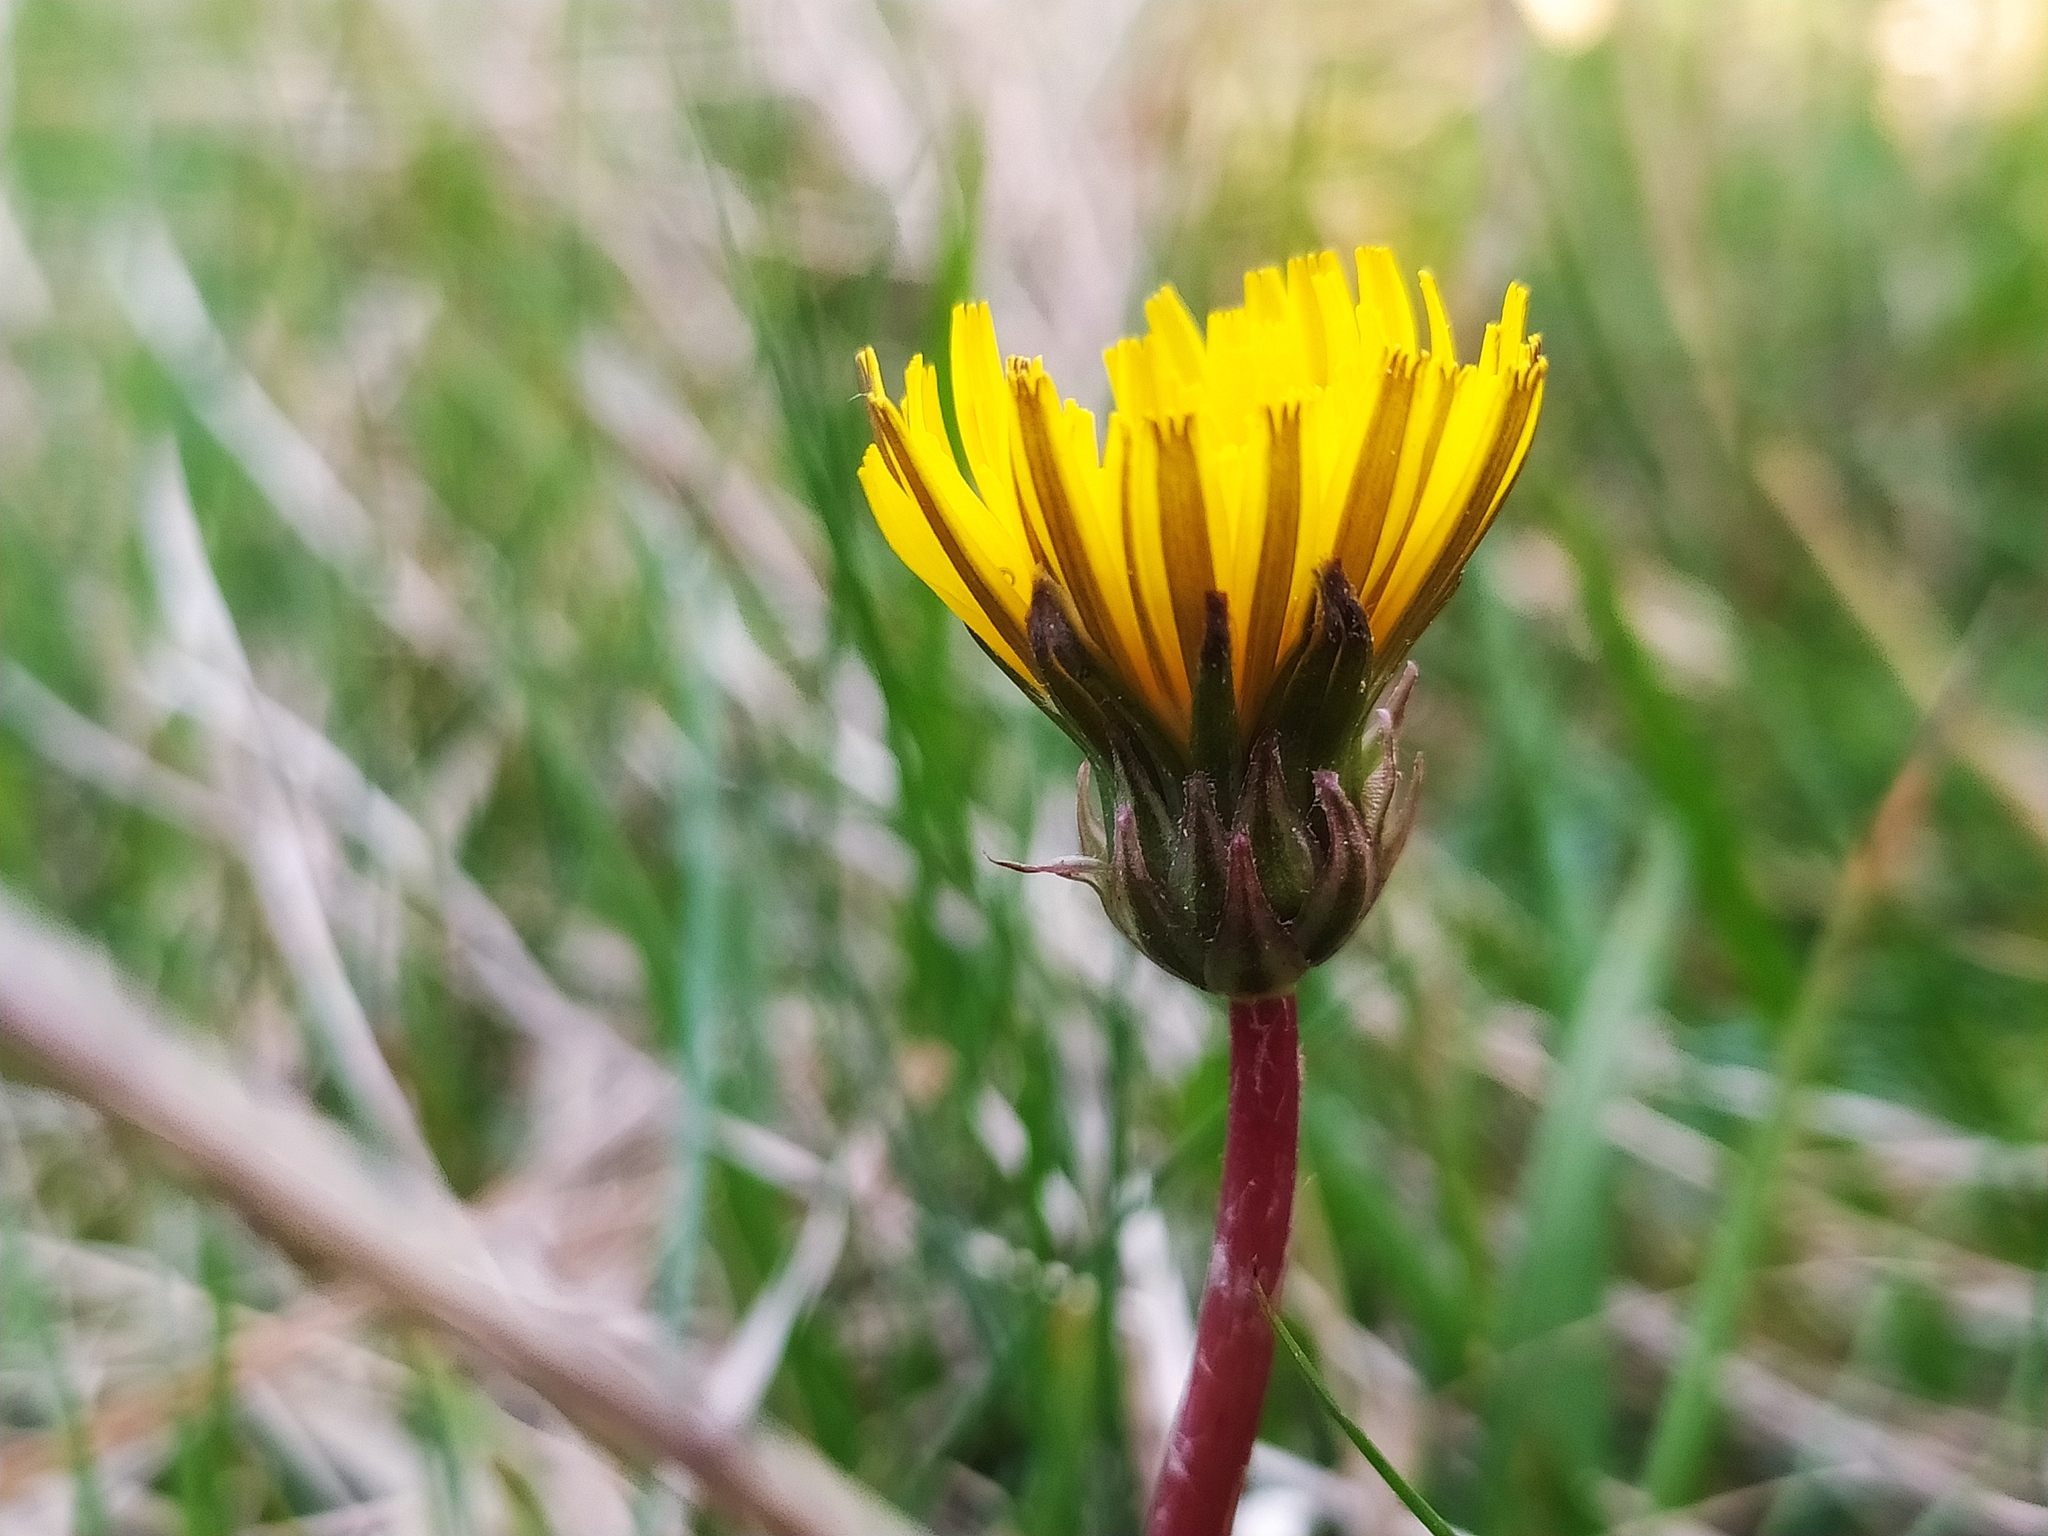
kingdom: Plantae
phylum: Tracheophyta
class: Magnoliopsida
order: Asterales
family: Asteraceae
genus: Taraxacum
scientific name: Taraxacum germanicum
